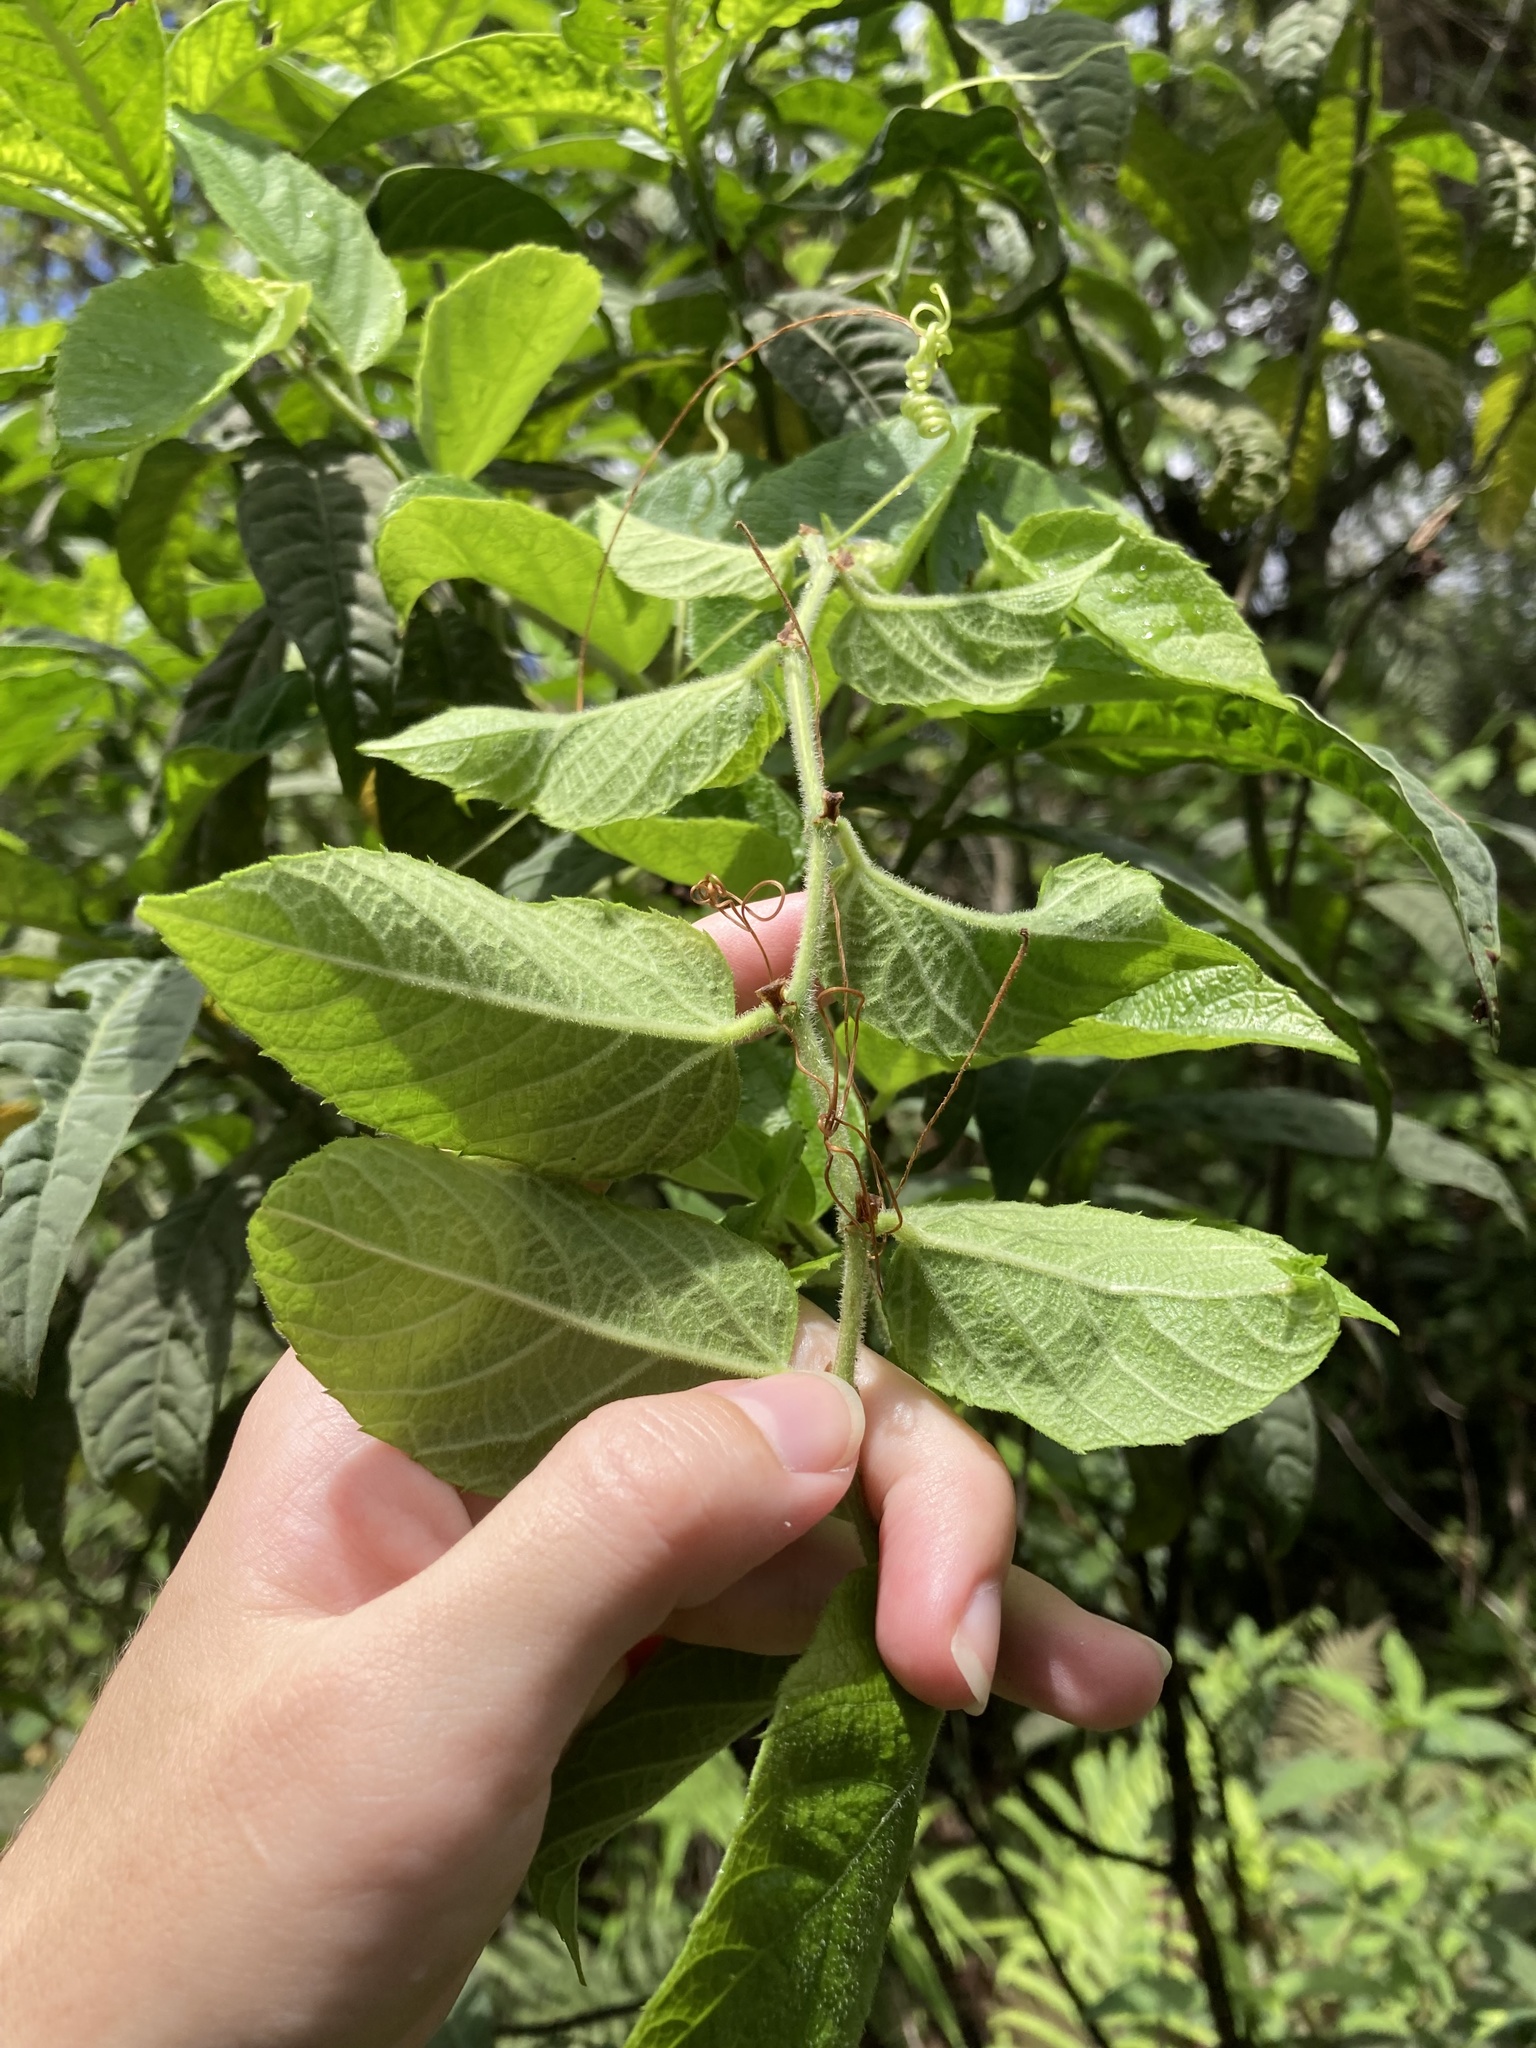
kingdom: Plantae
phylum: Tracheophyta
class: Magnoliopsida
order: Vitales
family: Vitaceae
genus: Cissus
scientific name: Cissus verticillata
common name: Princess vine
